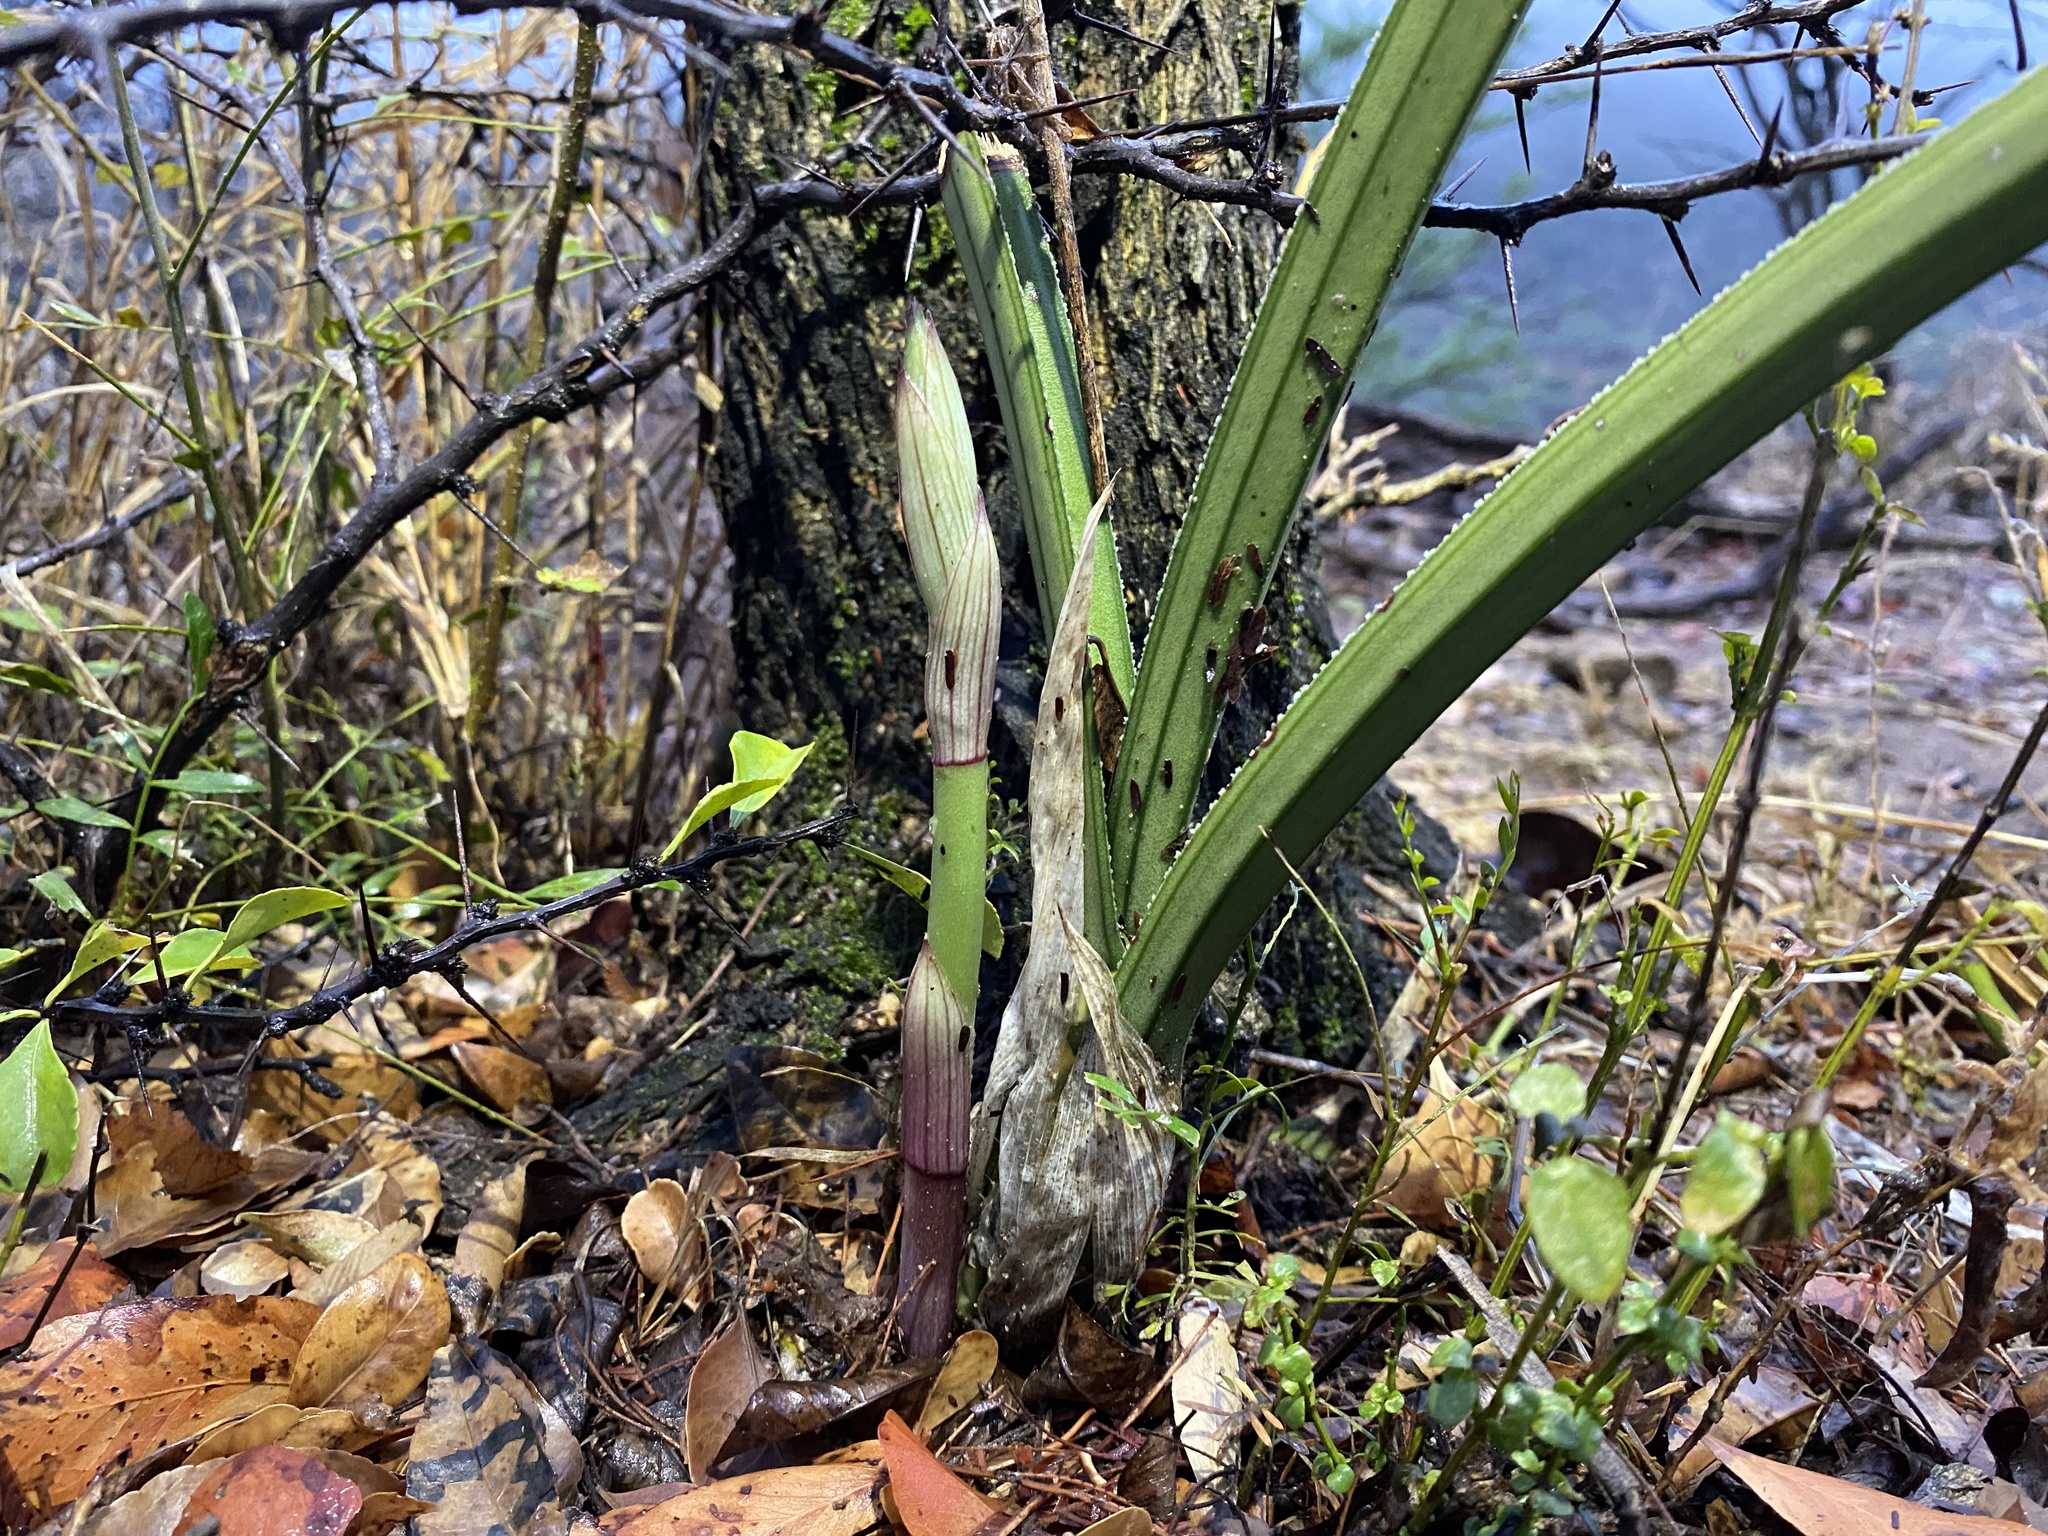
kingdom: Plantae
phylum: Tracheophyta
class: Liliopsida
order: Asparagales
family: Orchidaceae
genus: Eulophia
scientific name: Eulophia petersii
